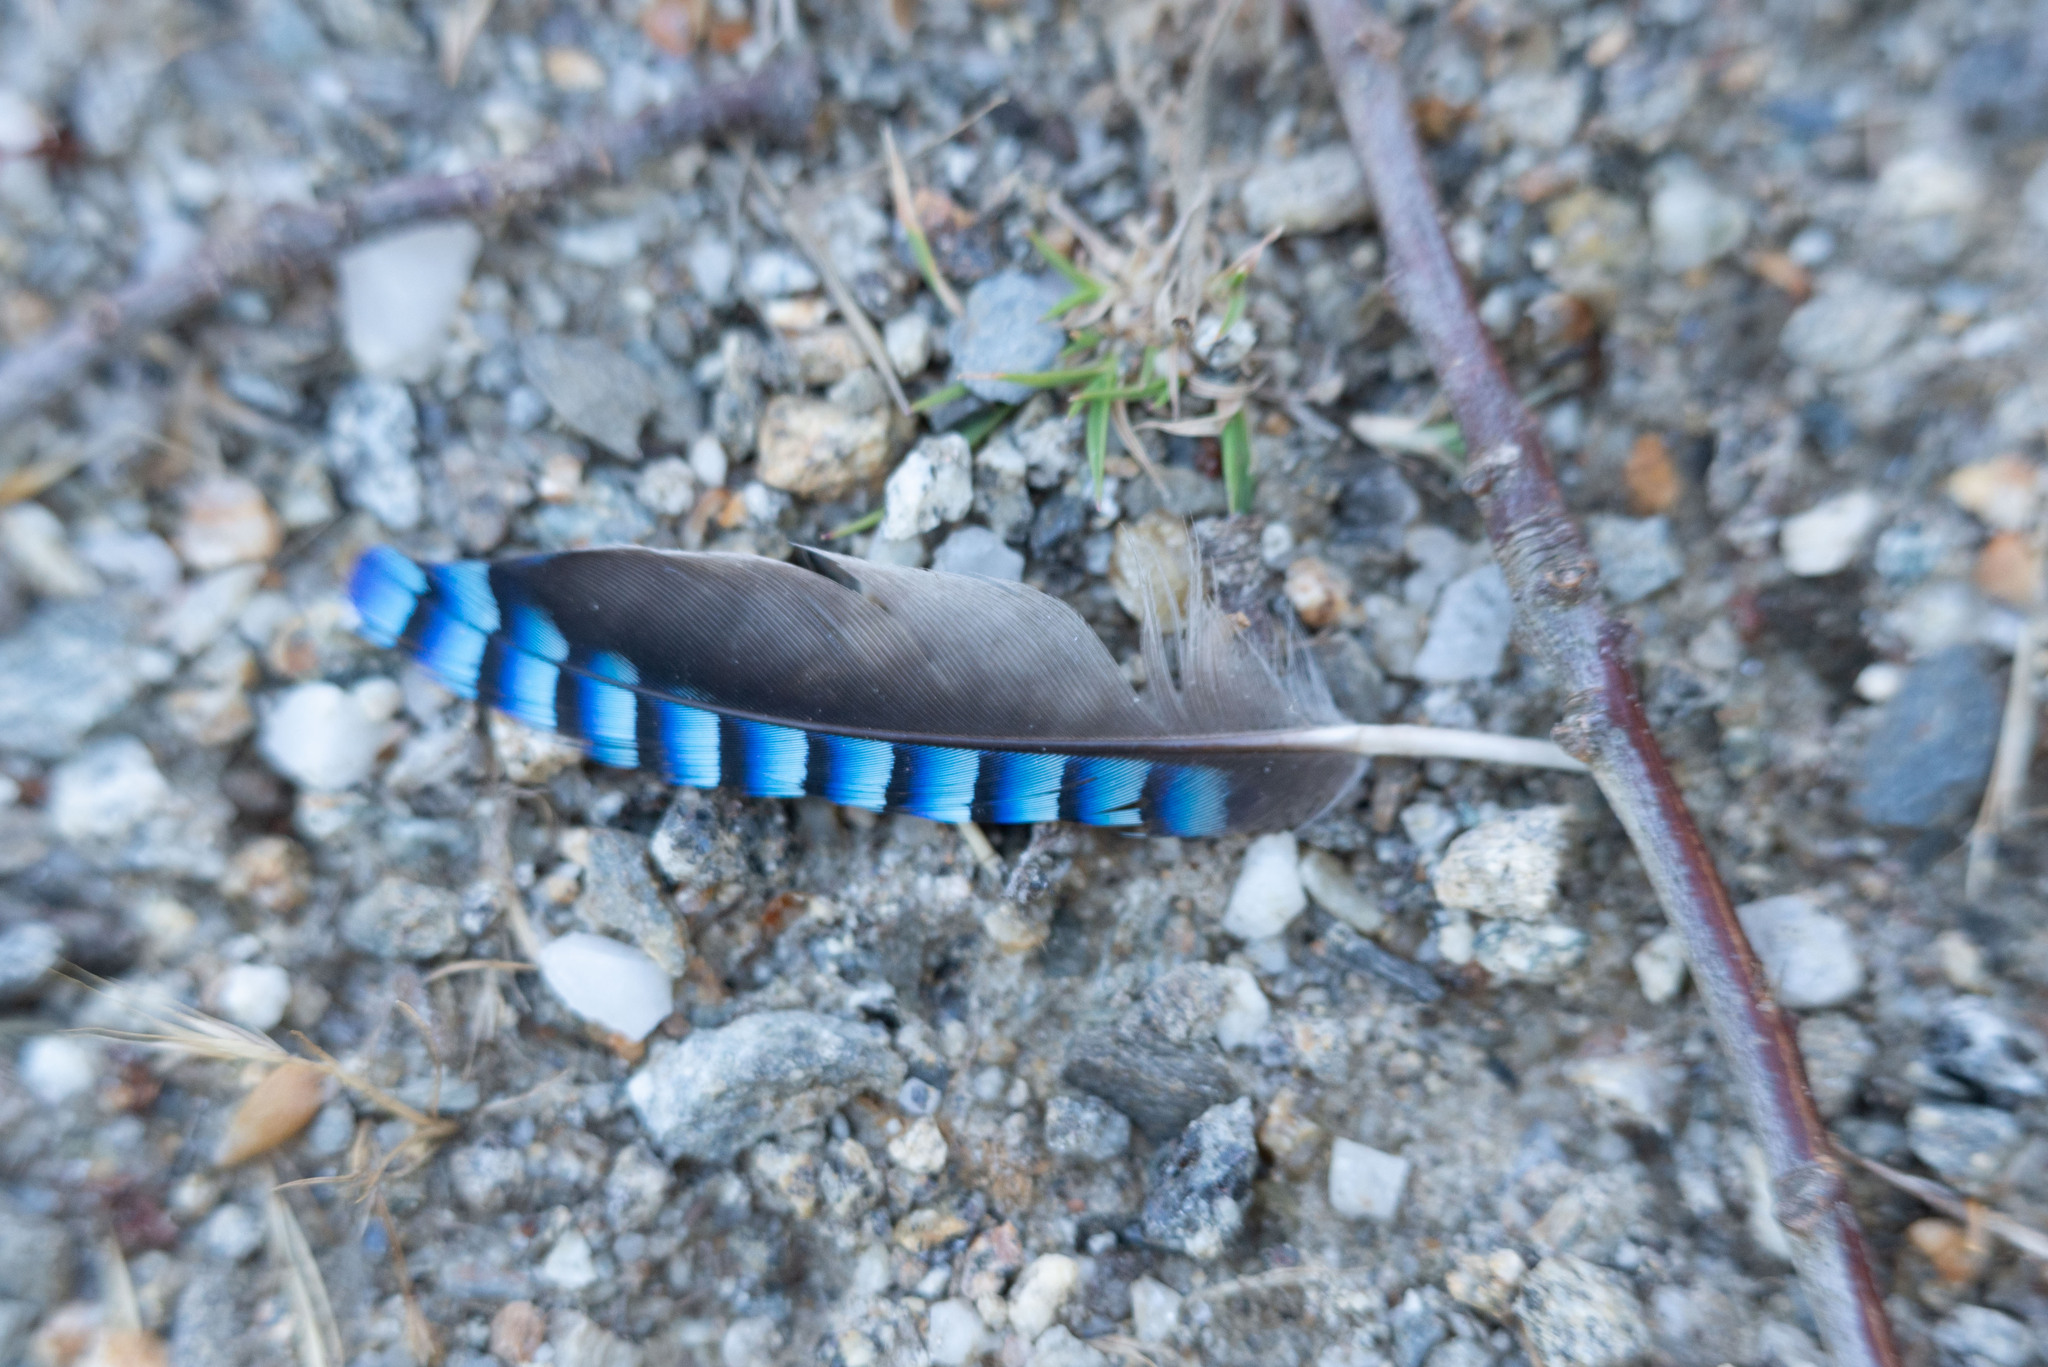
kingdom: Animalia
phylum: Chordata
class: Aves
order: Passeriformes
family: Corvidae
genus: Garrulus
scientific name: Garrulus glandarius
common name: Eurasian jay
